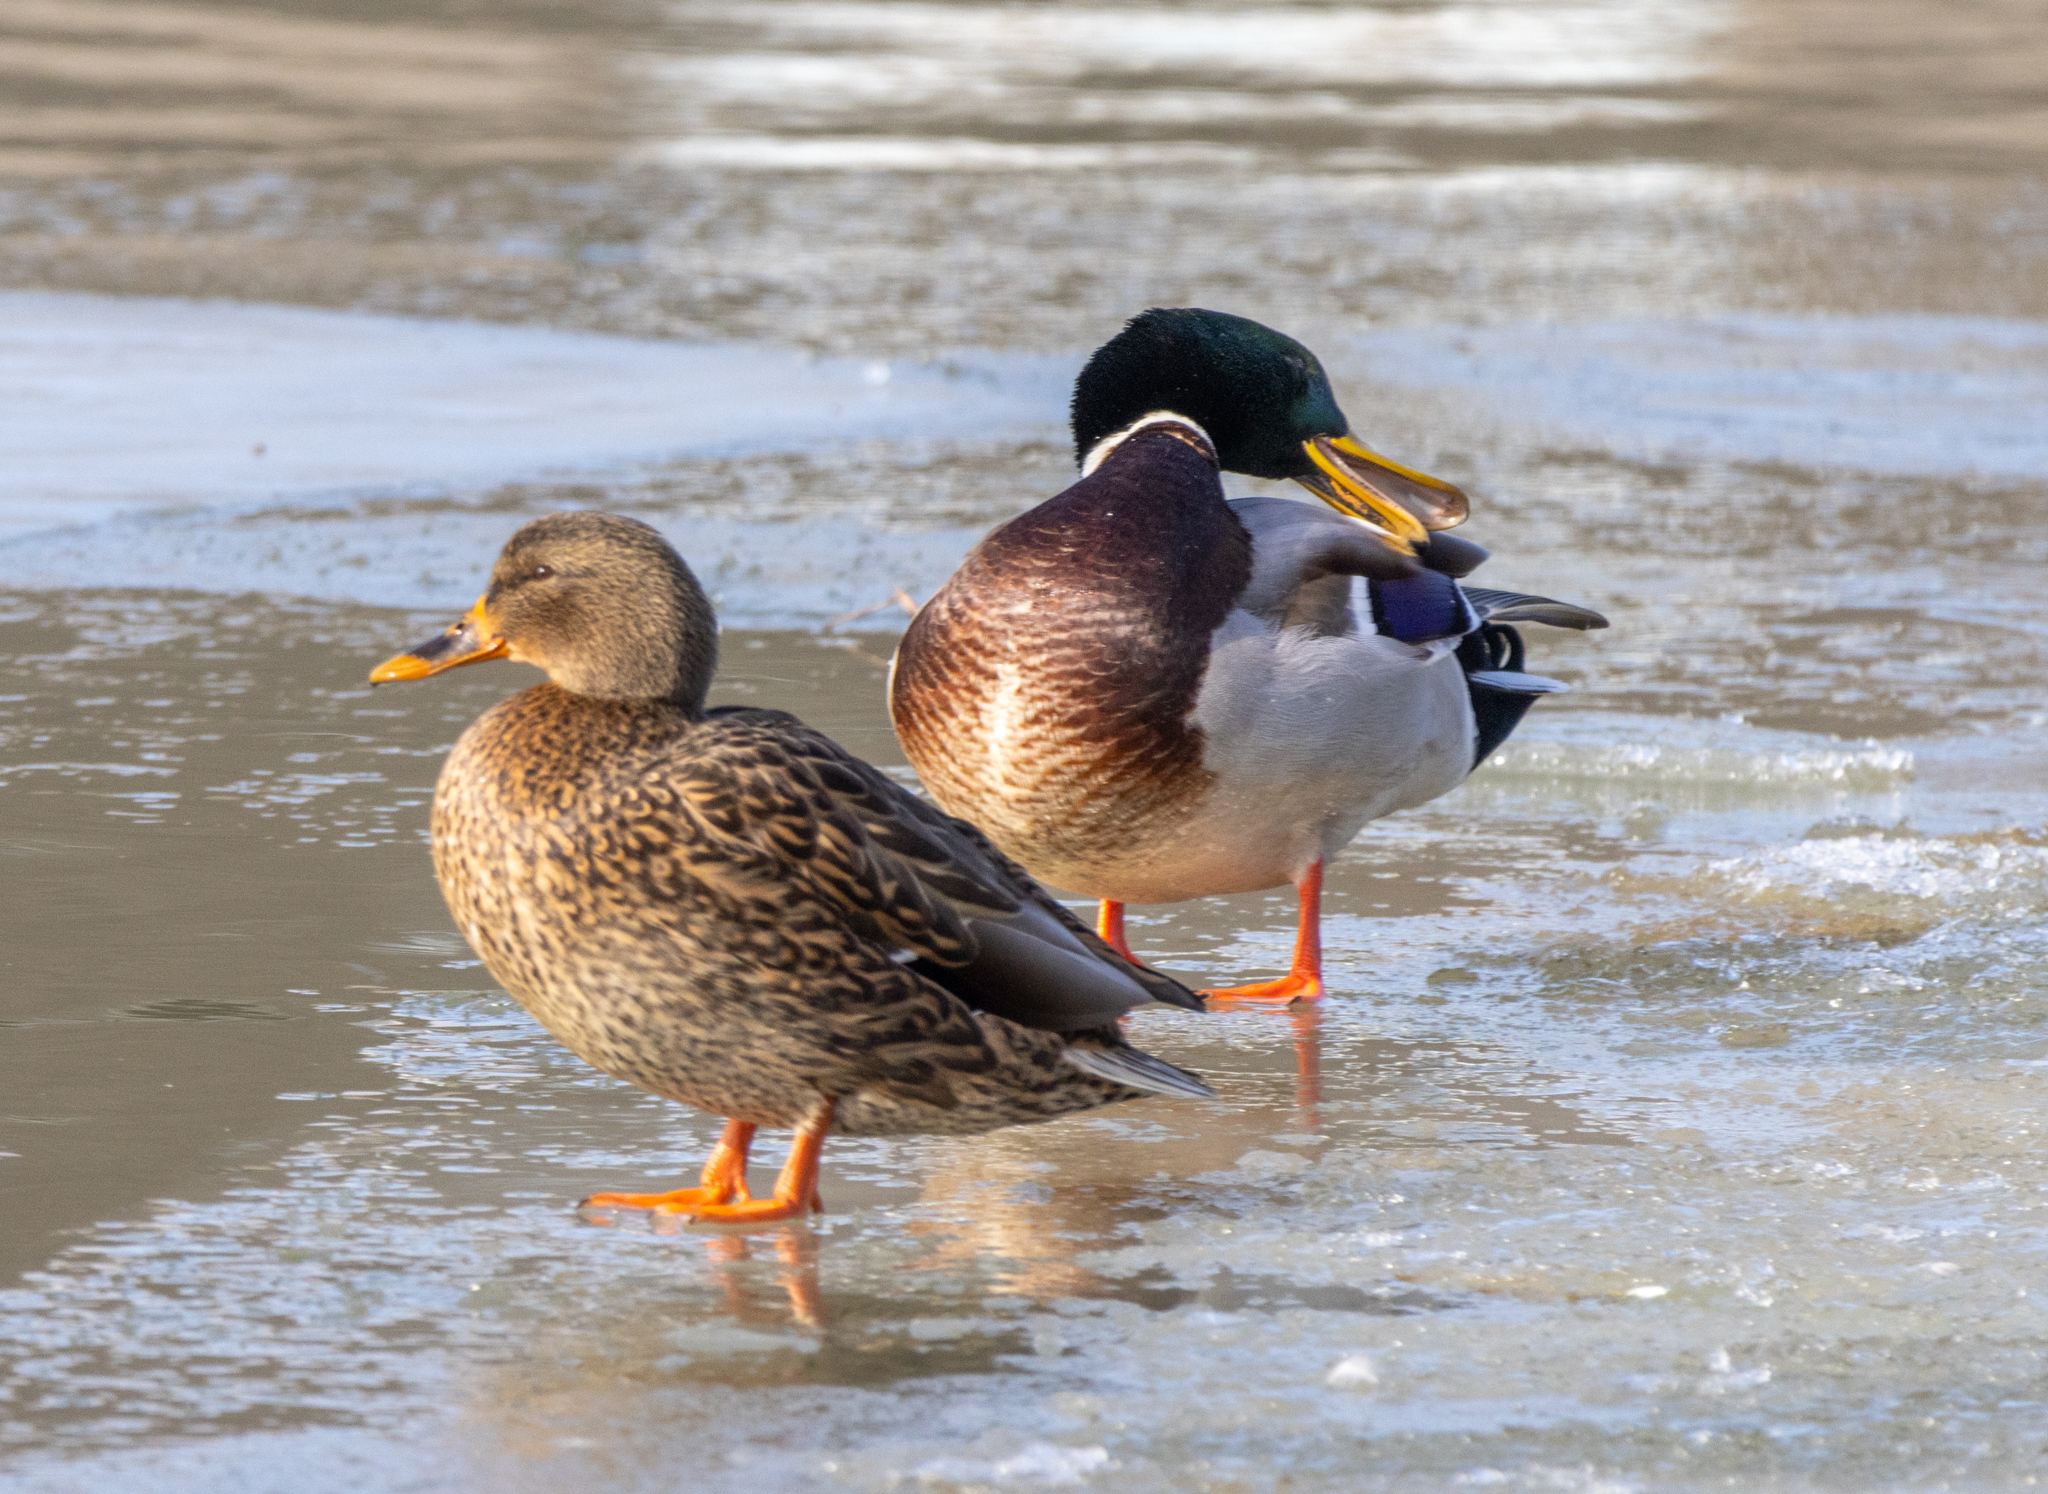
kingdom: Animalia
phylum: Chordata
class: Aves
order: Anseriformes
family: Anatidae
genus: Anas
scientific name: Anas platyrhynchos
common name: Mallard
